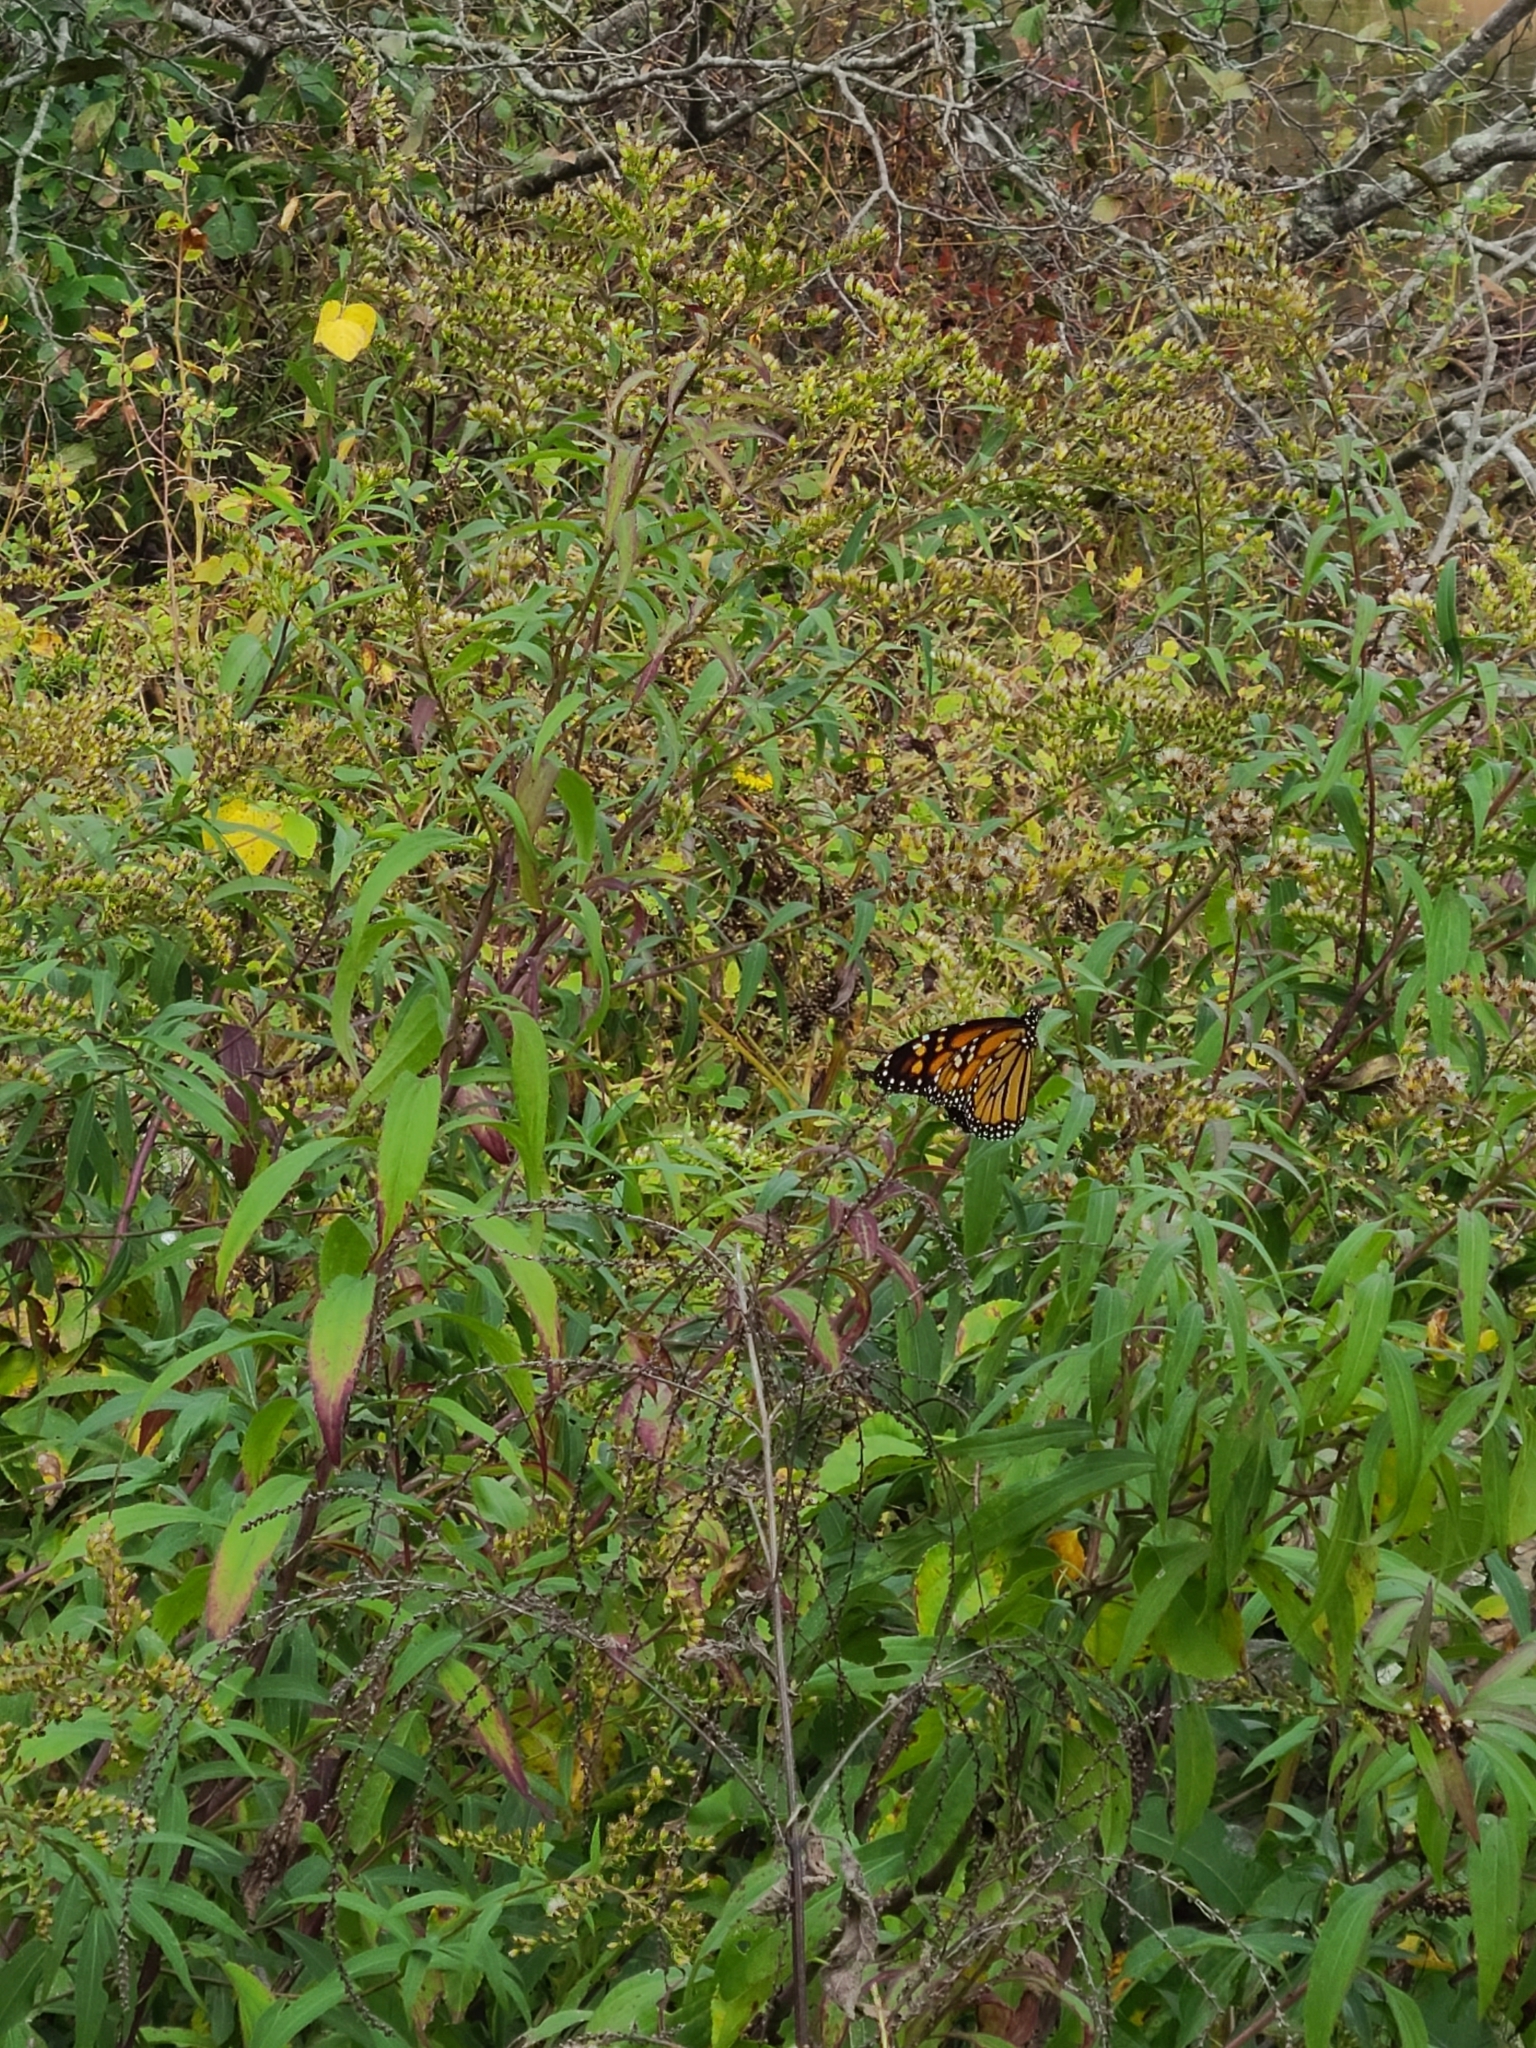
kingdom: Animalia
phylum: Arthropoda
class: Insecta
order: Lepidoptera
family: Nymphalidae
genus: Danaus
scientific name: Danaus plexippus
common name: Monarch
